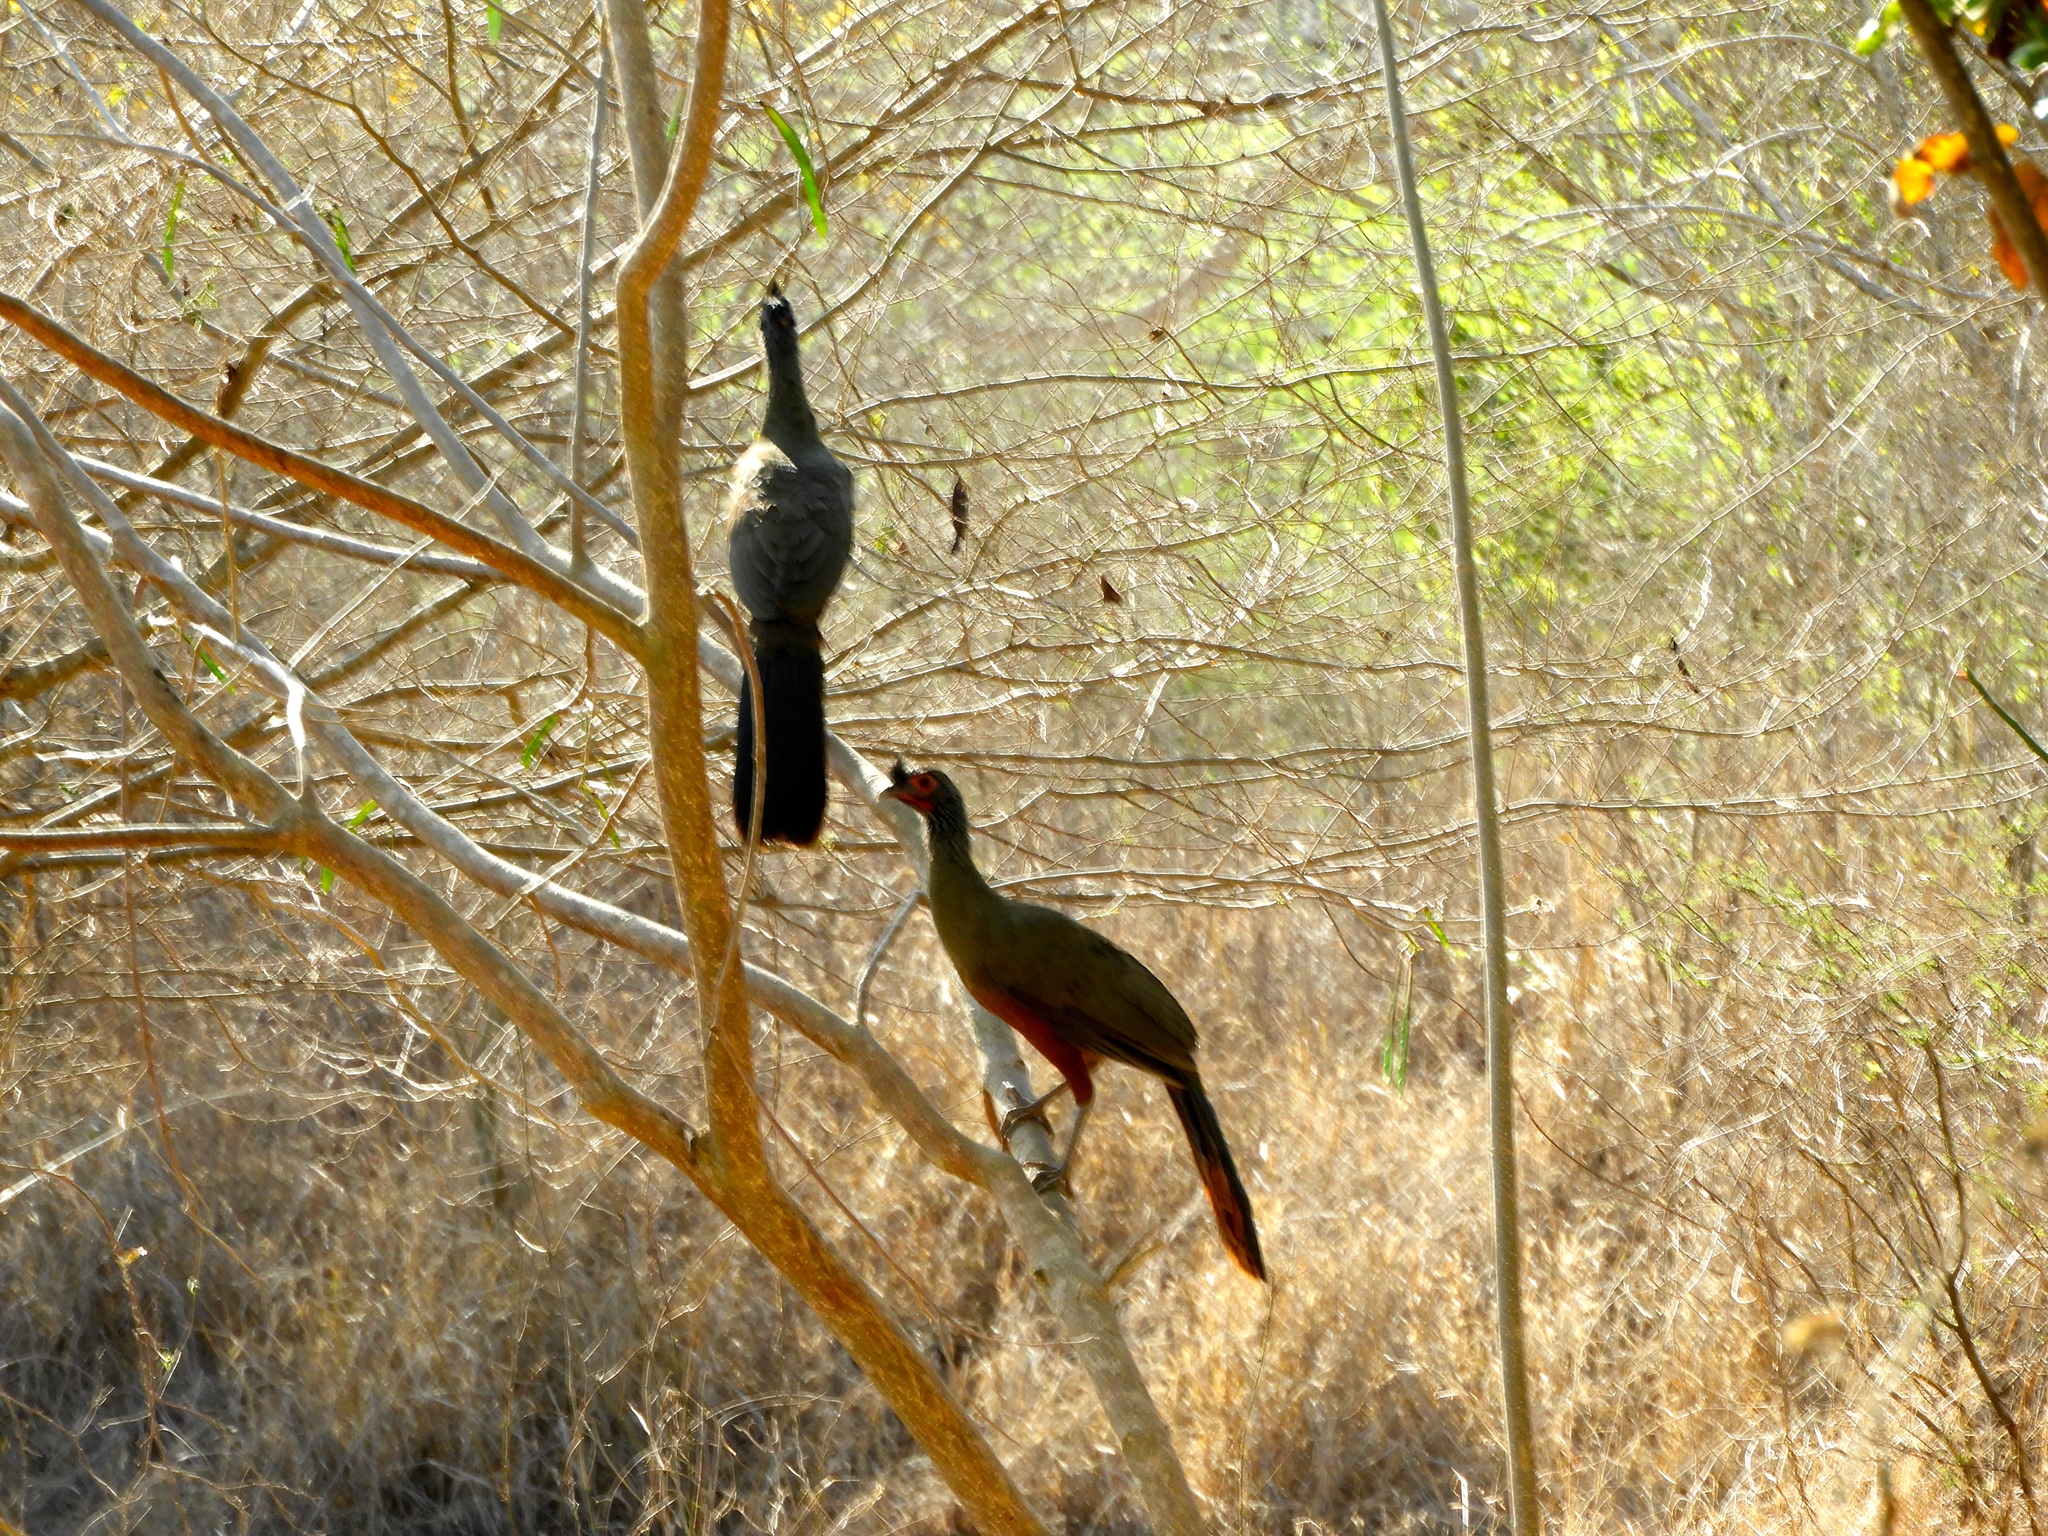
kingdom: Animalia
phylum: Chordata
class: Aves
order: Galliformes
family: Cracidae
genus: Ortalis
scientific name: Ortalis wagleri
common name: Rufous-bellied chachalaca
